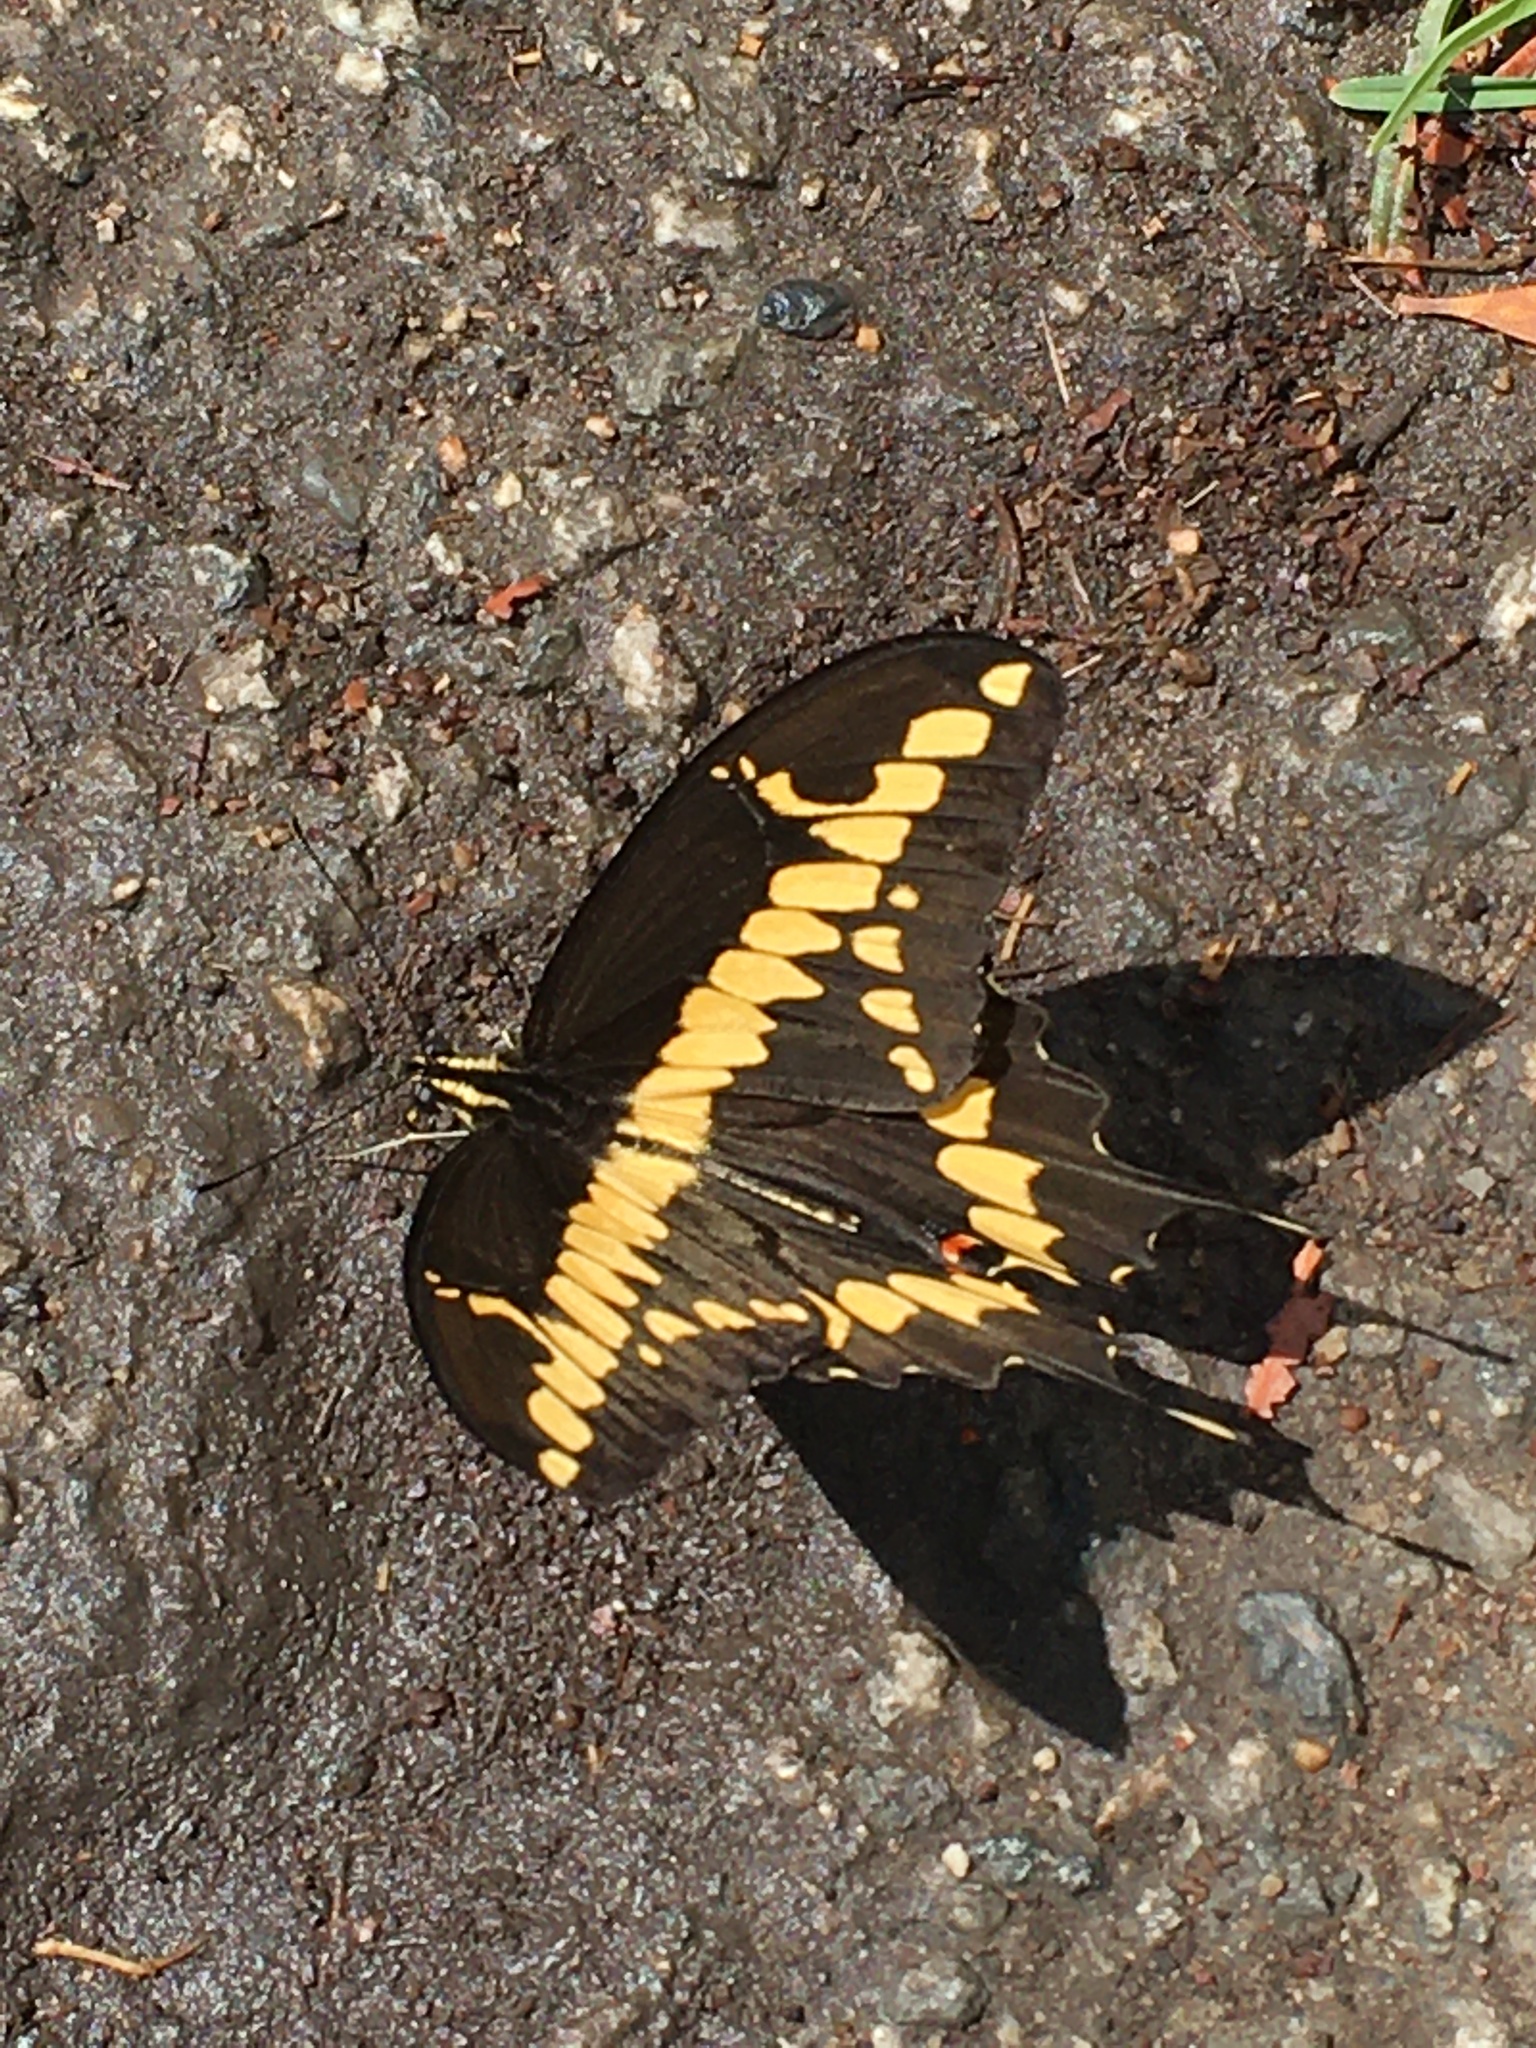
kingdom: Animalia
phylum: Arthropoda
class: Insecta
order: Lepidoptera
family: Papilionidae
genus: Papilio
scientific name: Papilio rumiko
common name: Western giant swallowtail
